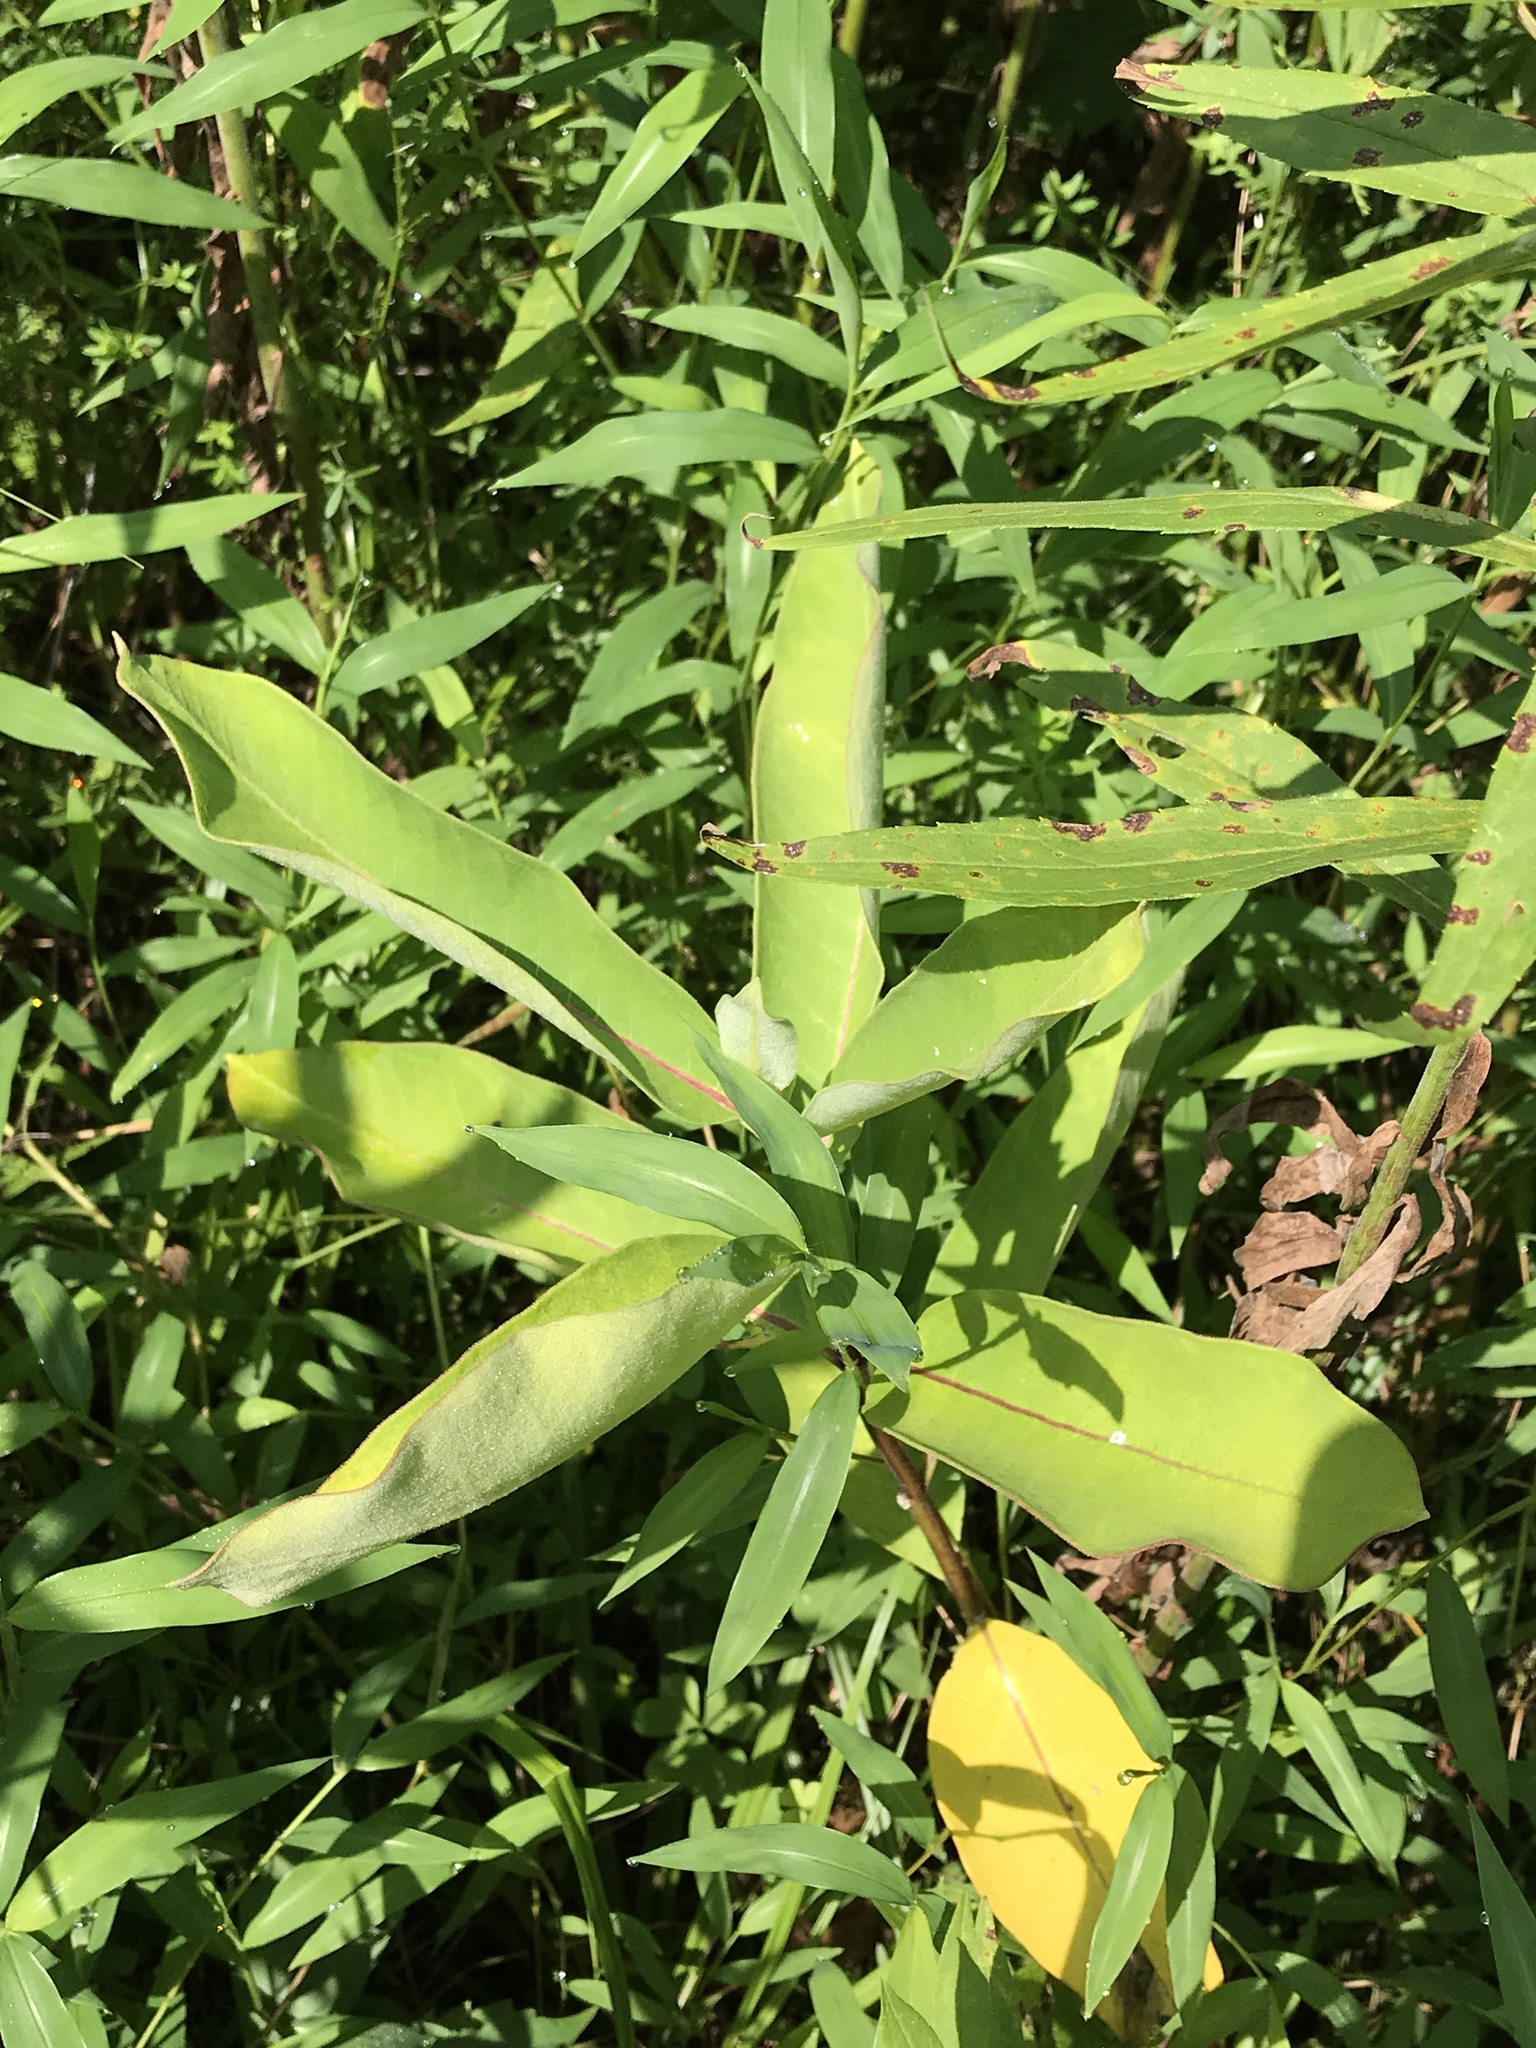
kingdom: Plantae
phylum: Tracheophyta
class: Magnoliopsida
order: Gentianales
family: Apocynaceae
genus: Asclepias
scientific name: Asclepias syriaca
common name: Common milkweed
